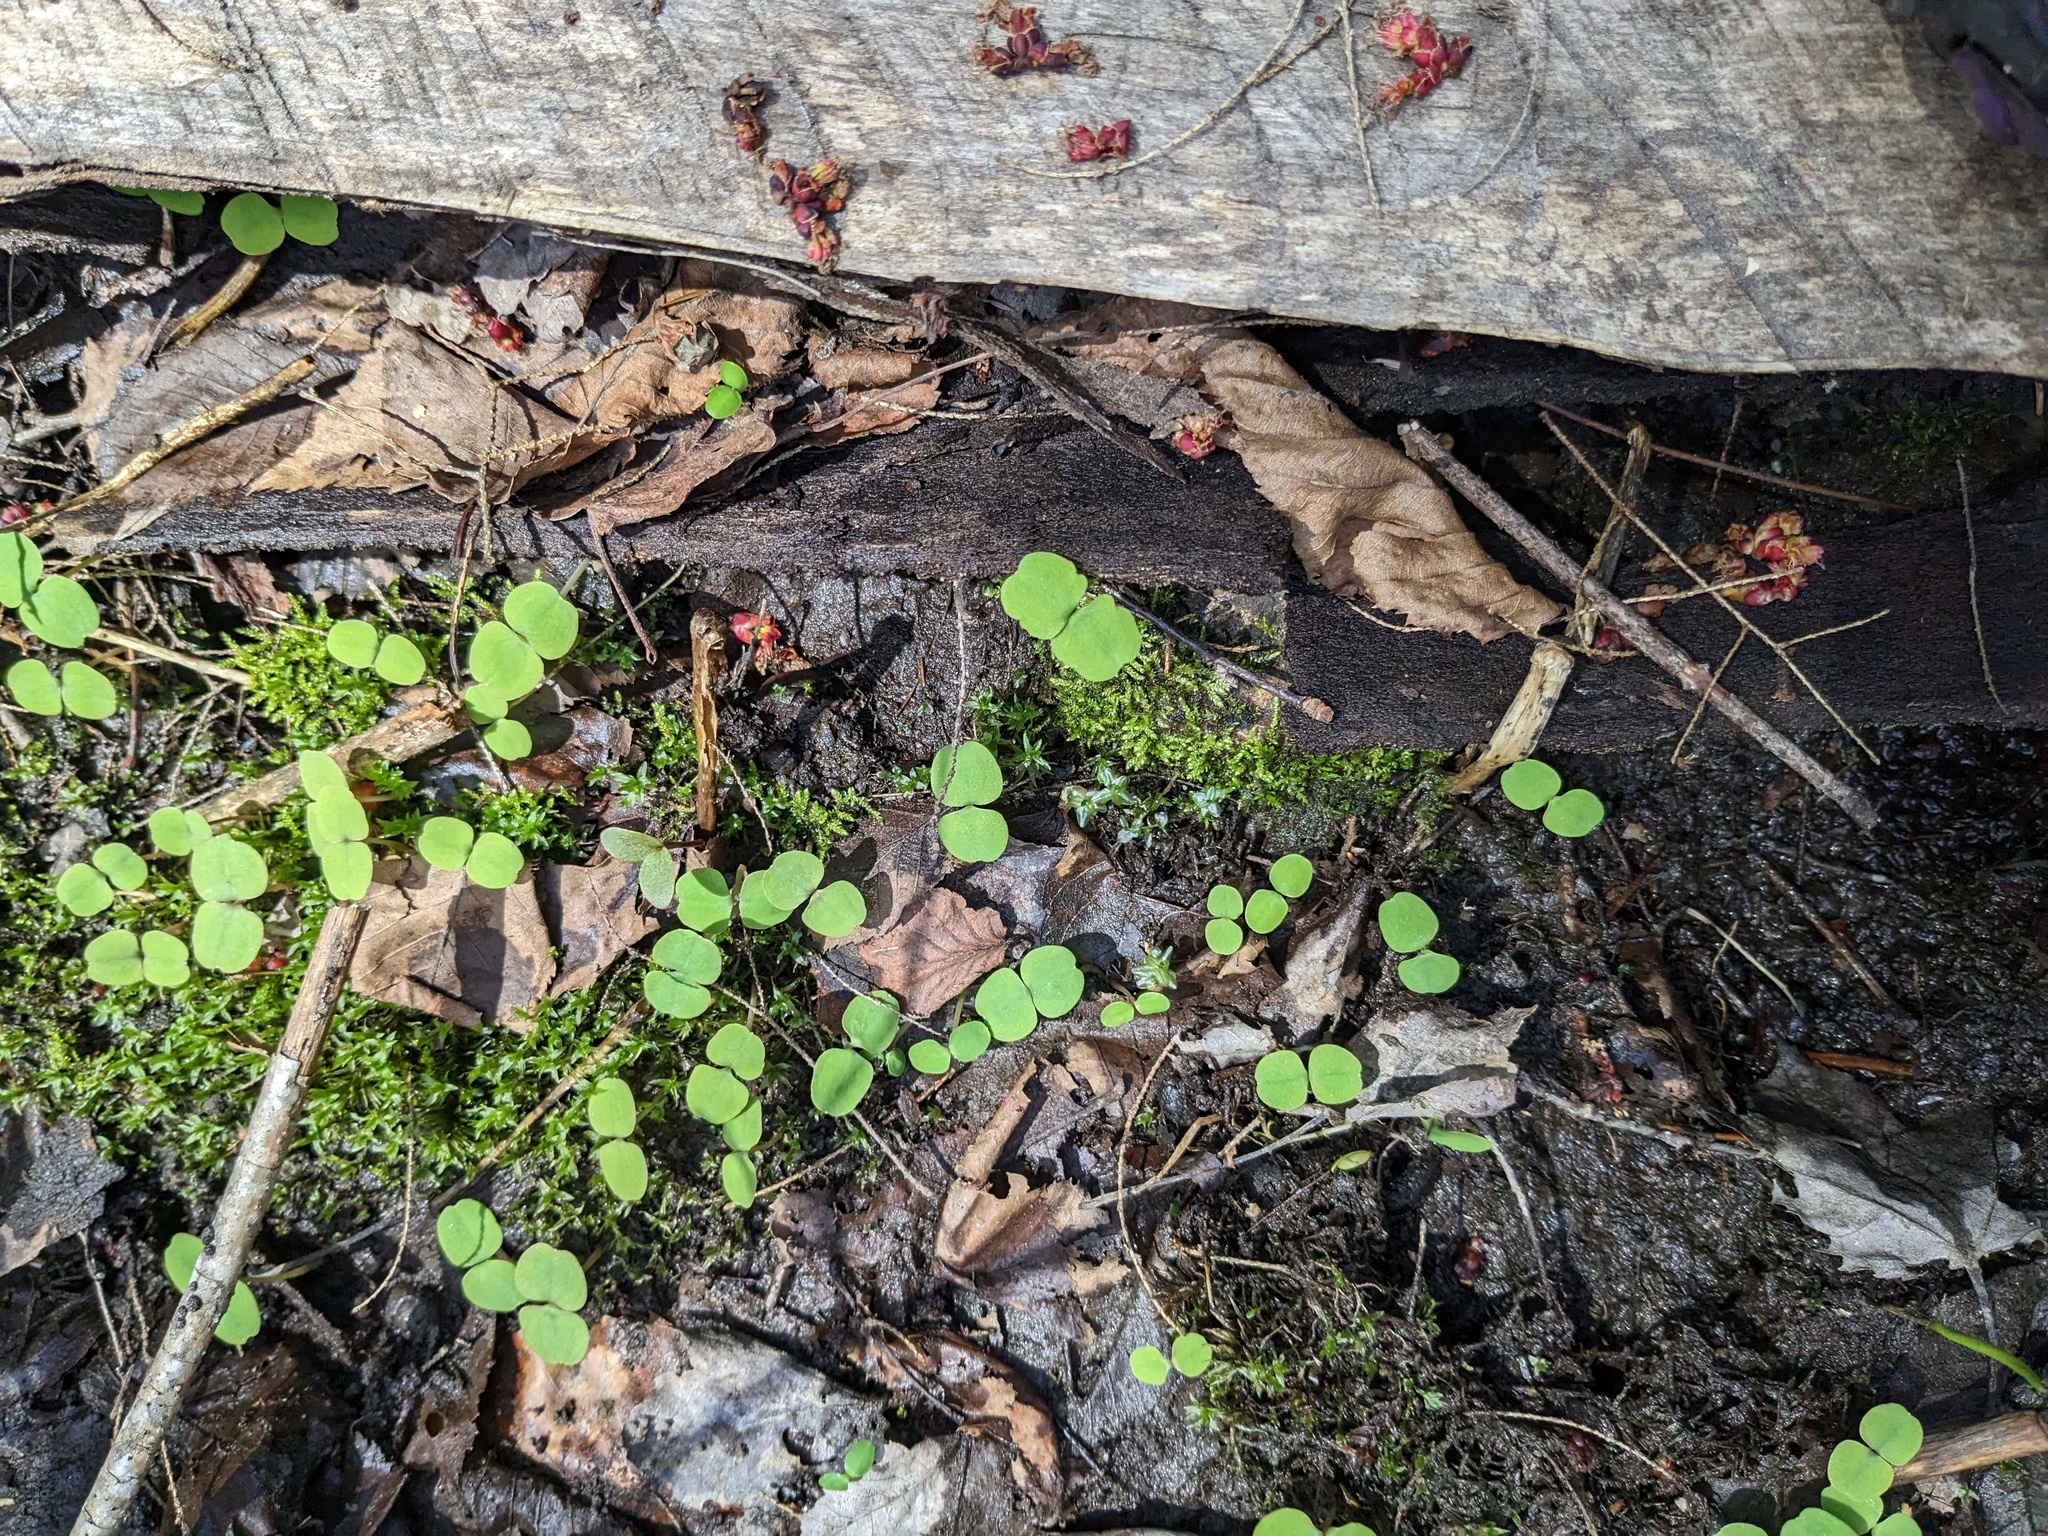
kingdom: Plantae
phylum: Tracheophyta
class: Magnoliopsida
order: Ericales
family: Balsaminaceae
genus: Impatiens
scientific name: Impatiens capensis
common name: Orange balsam
